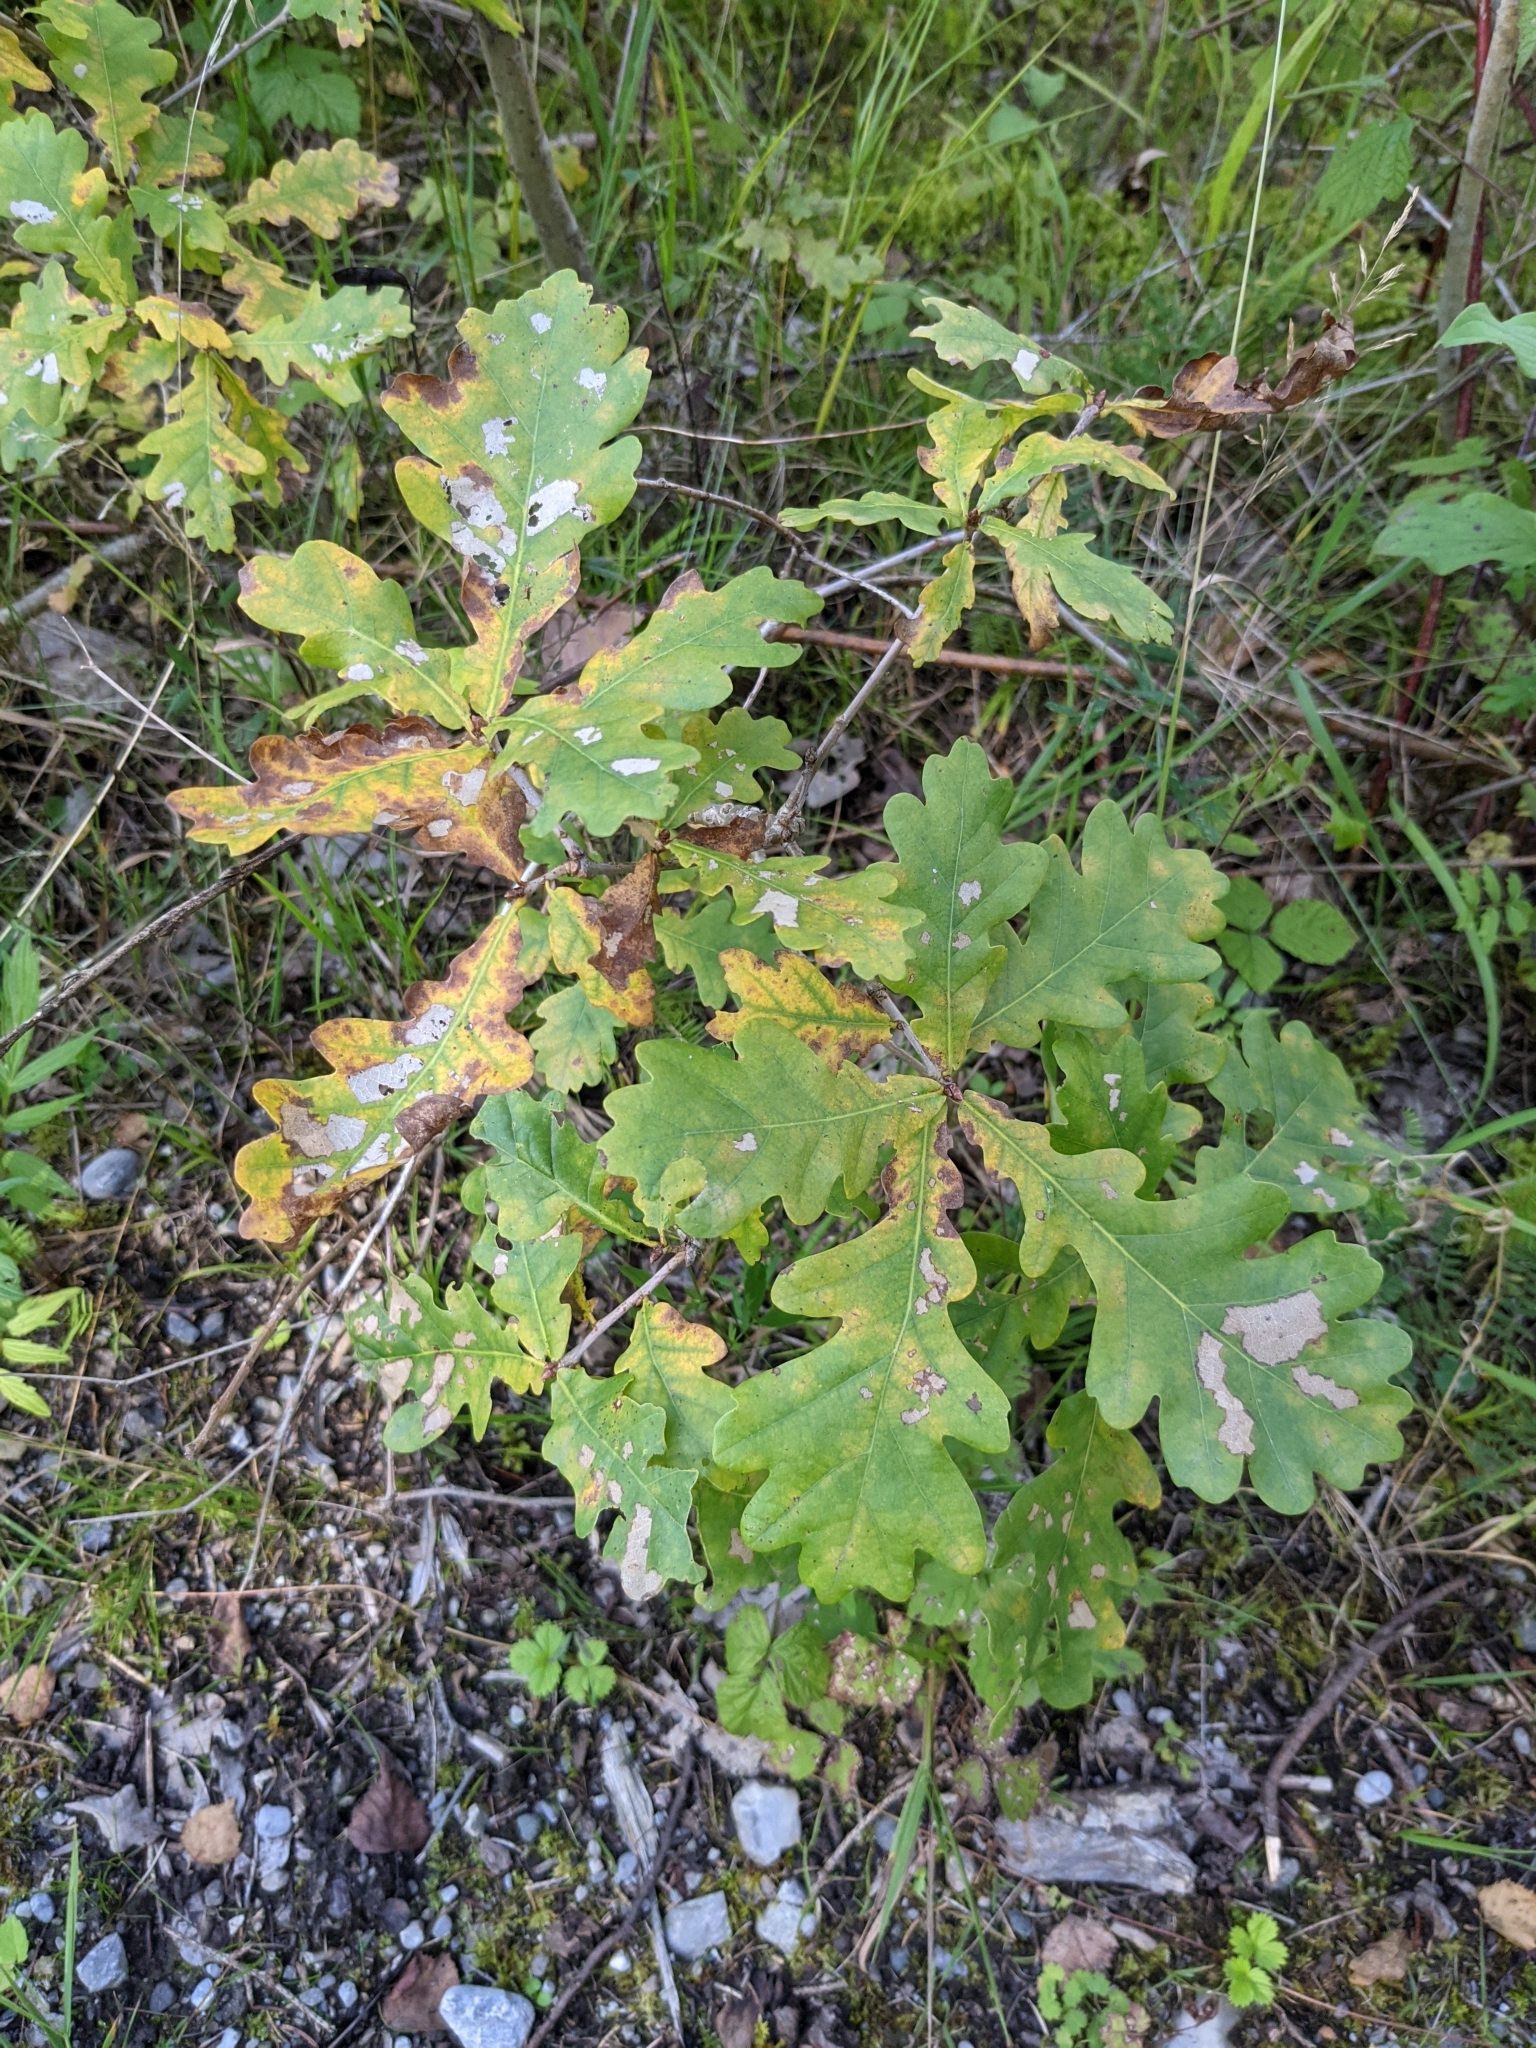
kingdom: Plantae
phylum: Tracheophyta
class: Magnoliopsida
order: Fagales
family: Fagaceae
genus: Quercus
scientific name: Quercus robur
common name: Pedunculate oak
